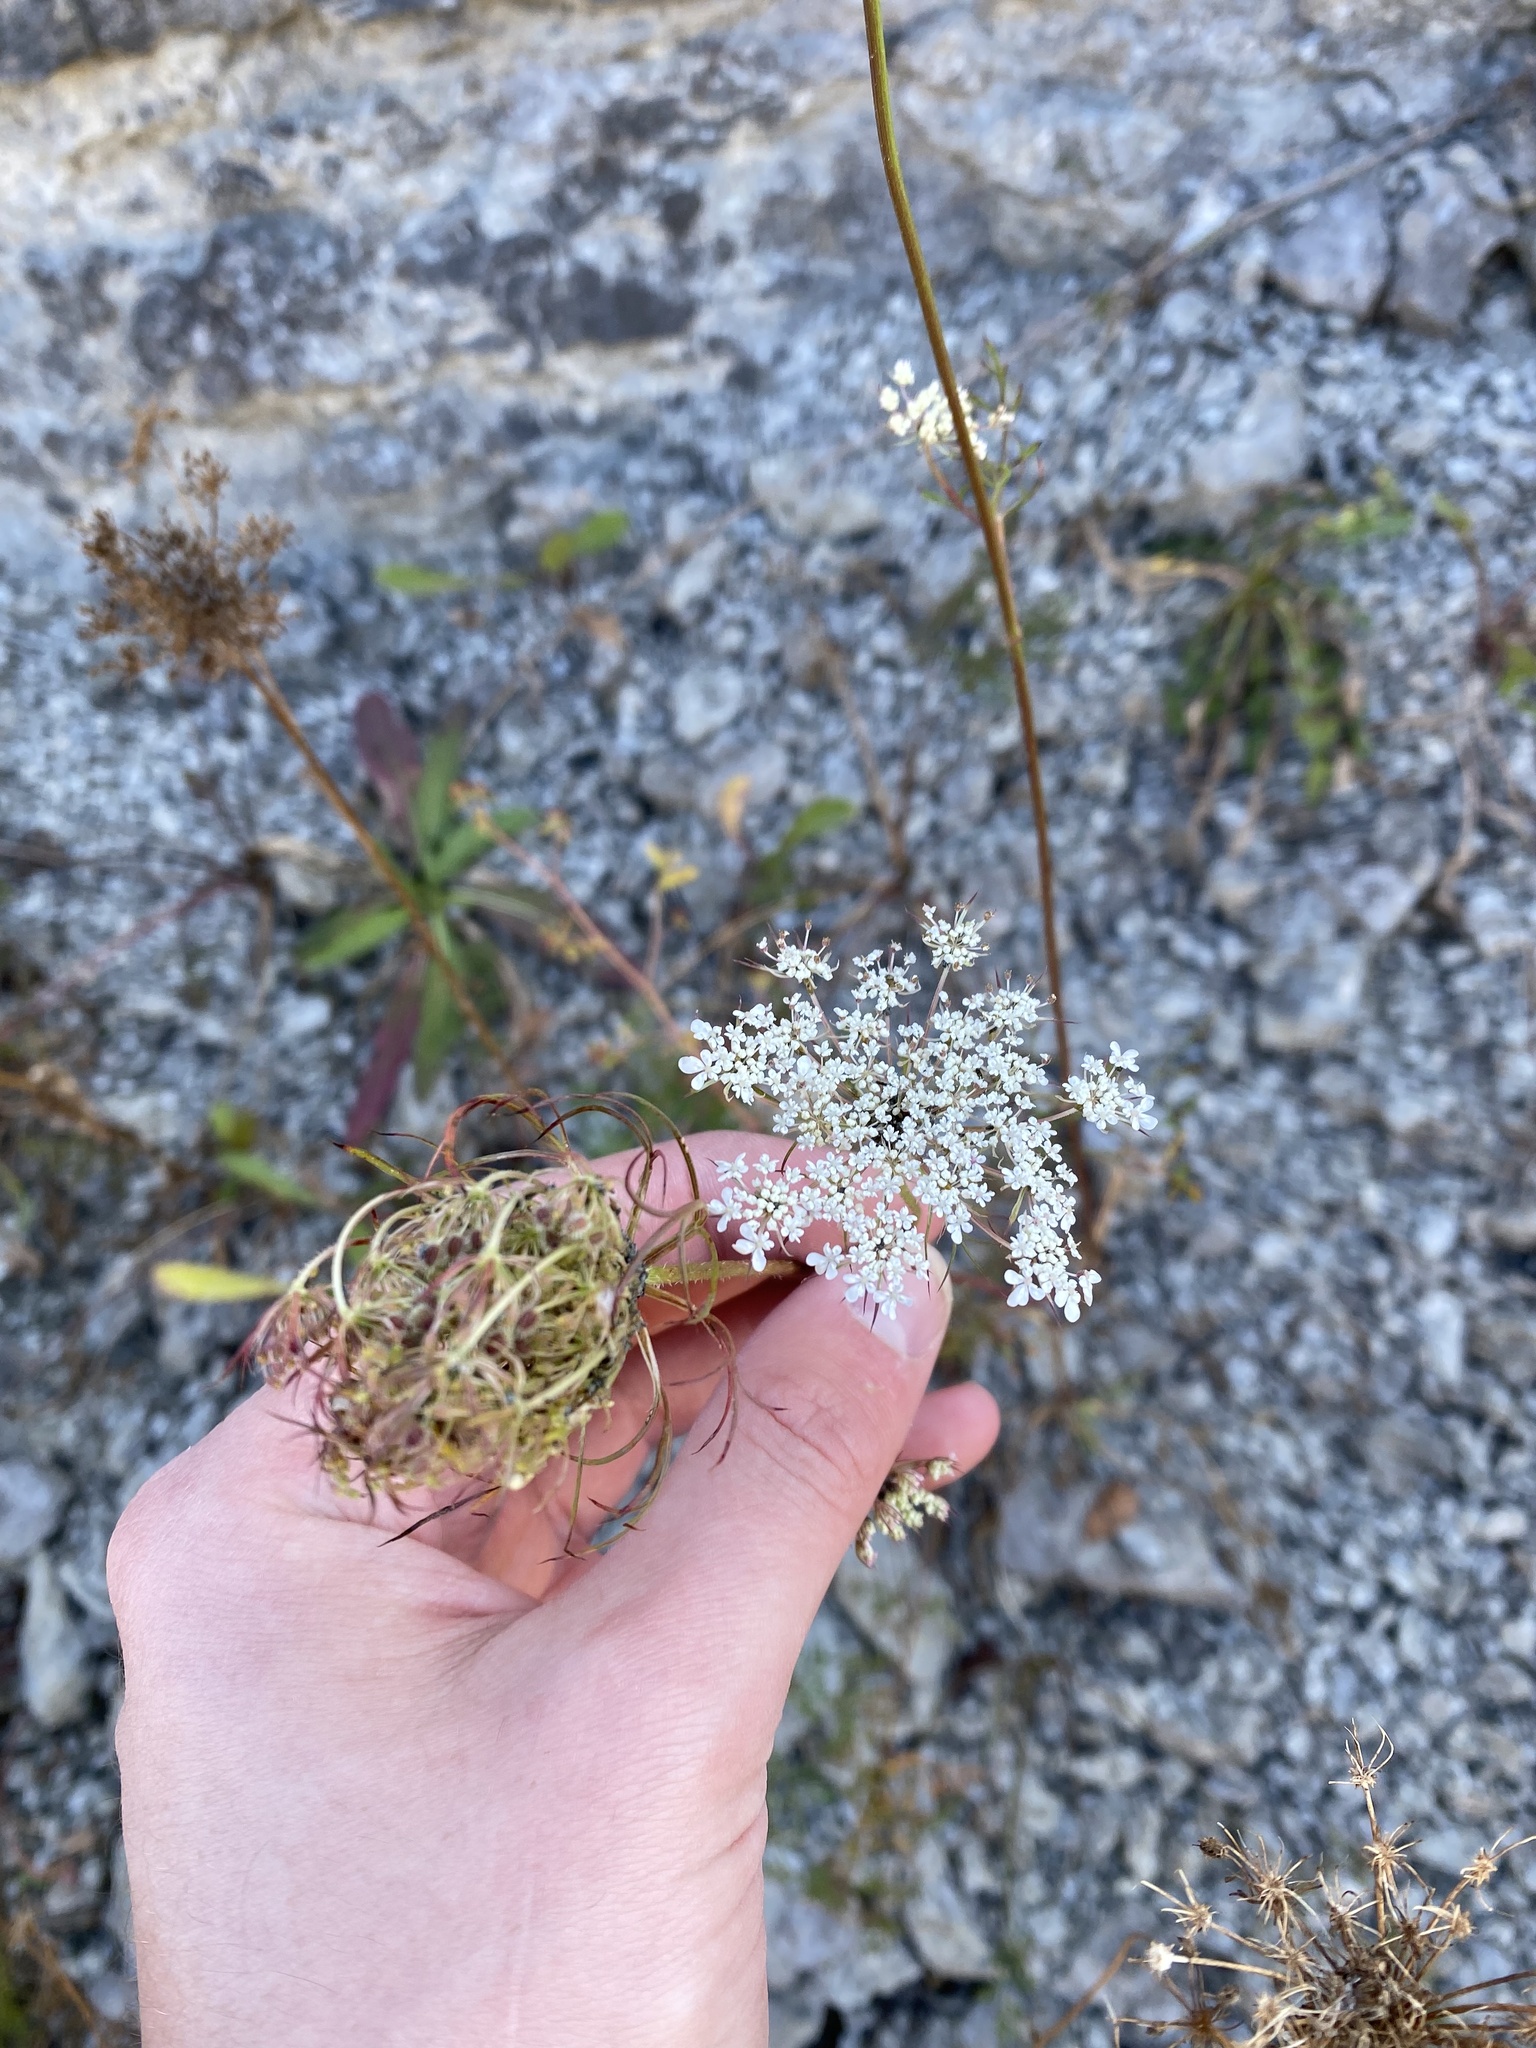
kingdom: Plantae
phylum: Tracheophyta
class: Magnoliopsida
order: Apiales
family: Apiaceae
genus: Daucus
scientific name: Daucus carota
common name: Wild carrot
